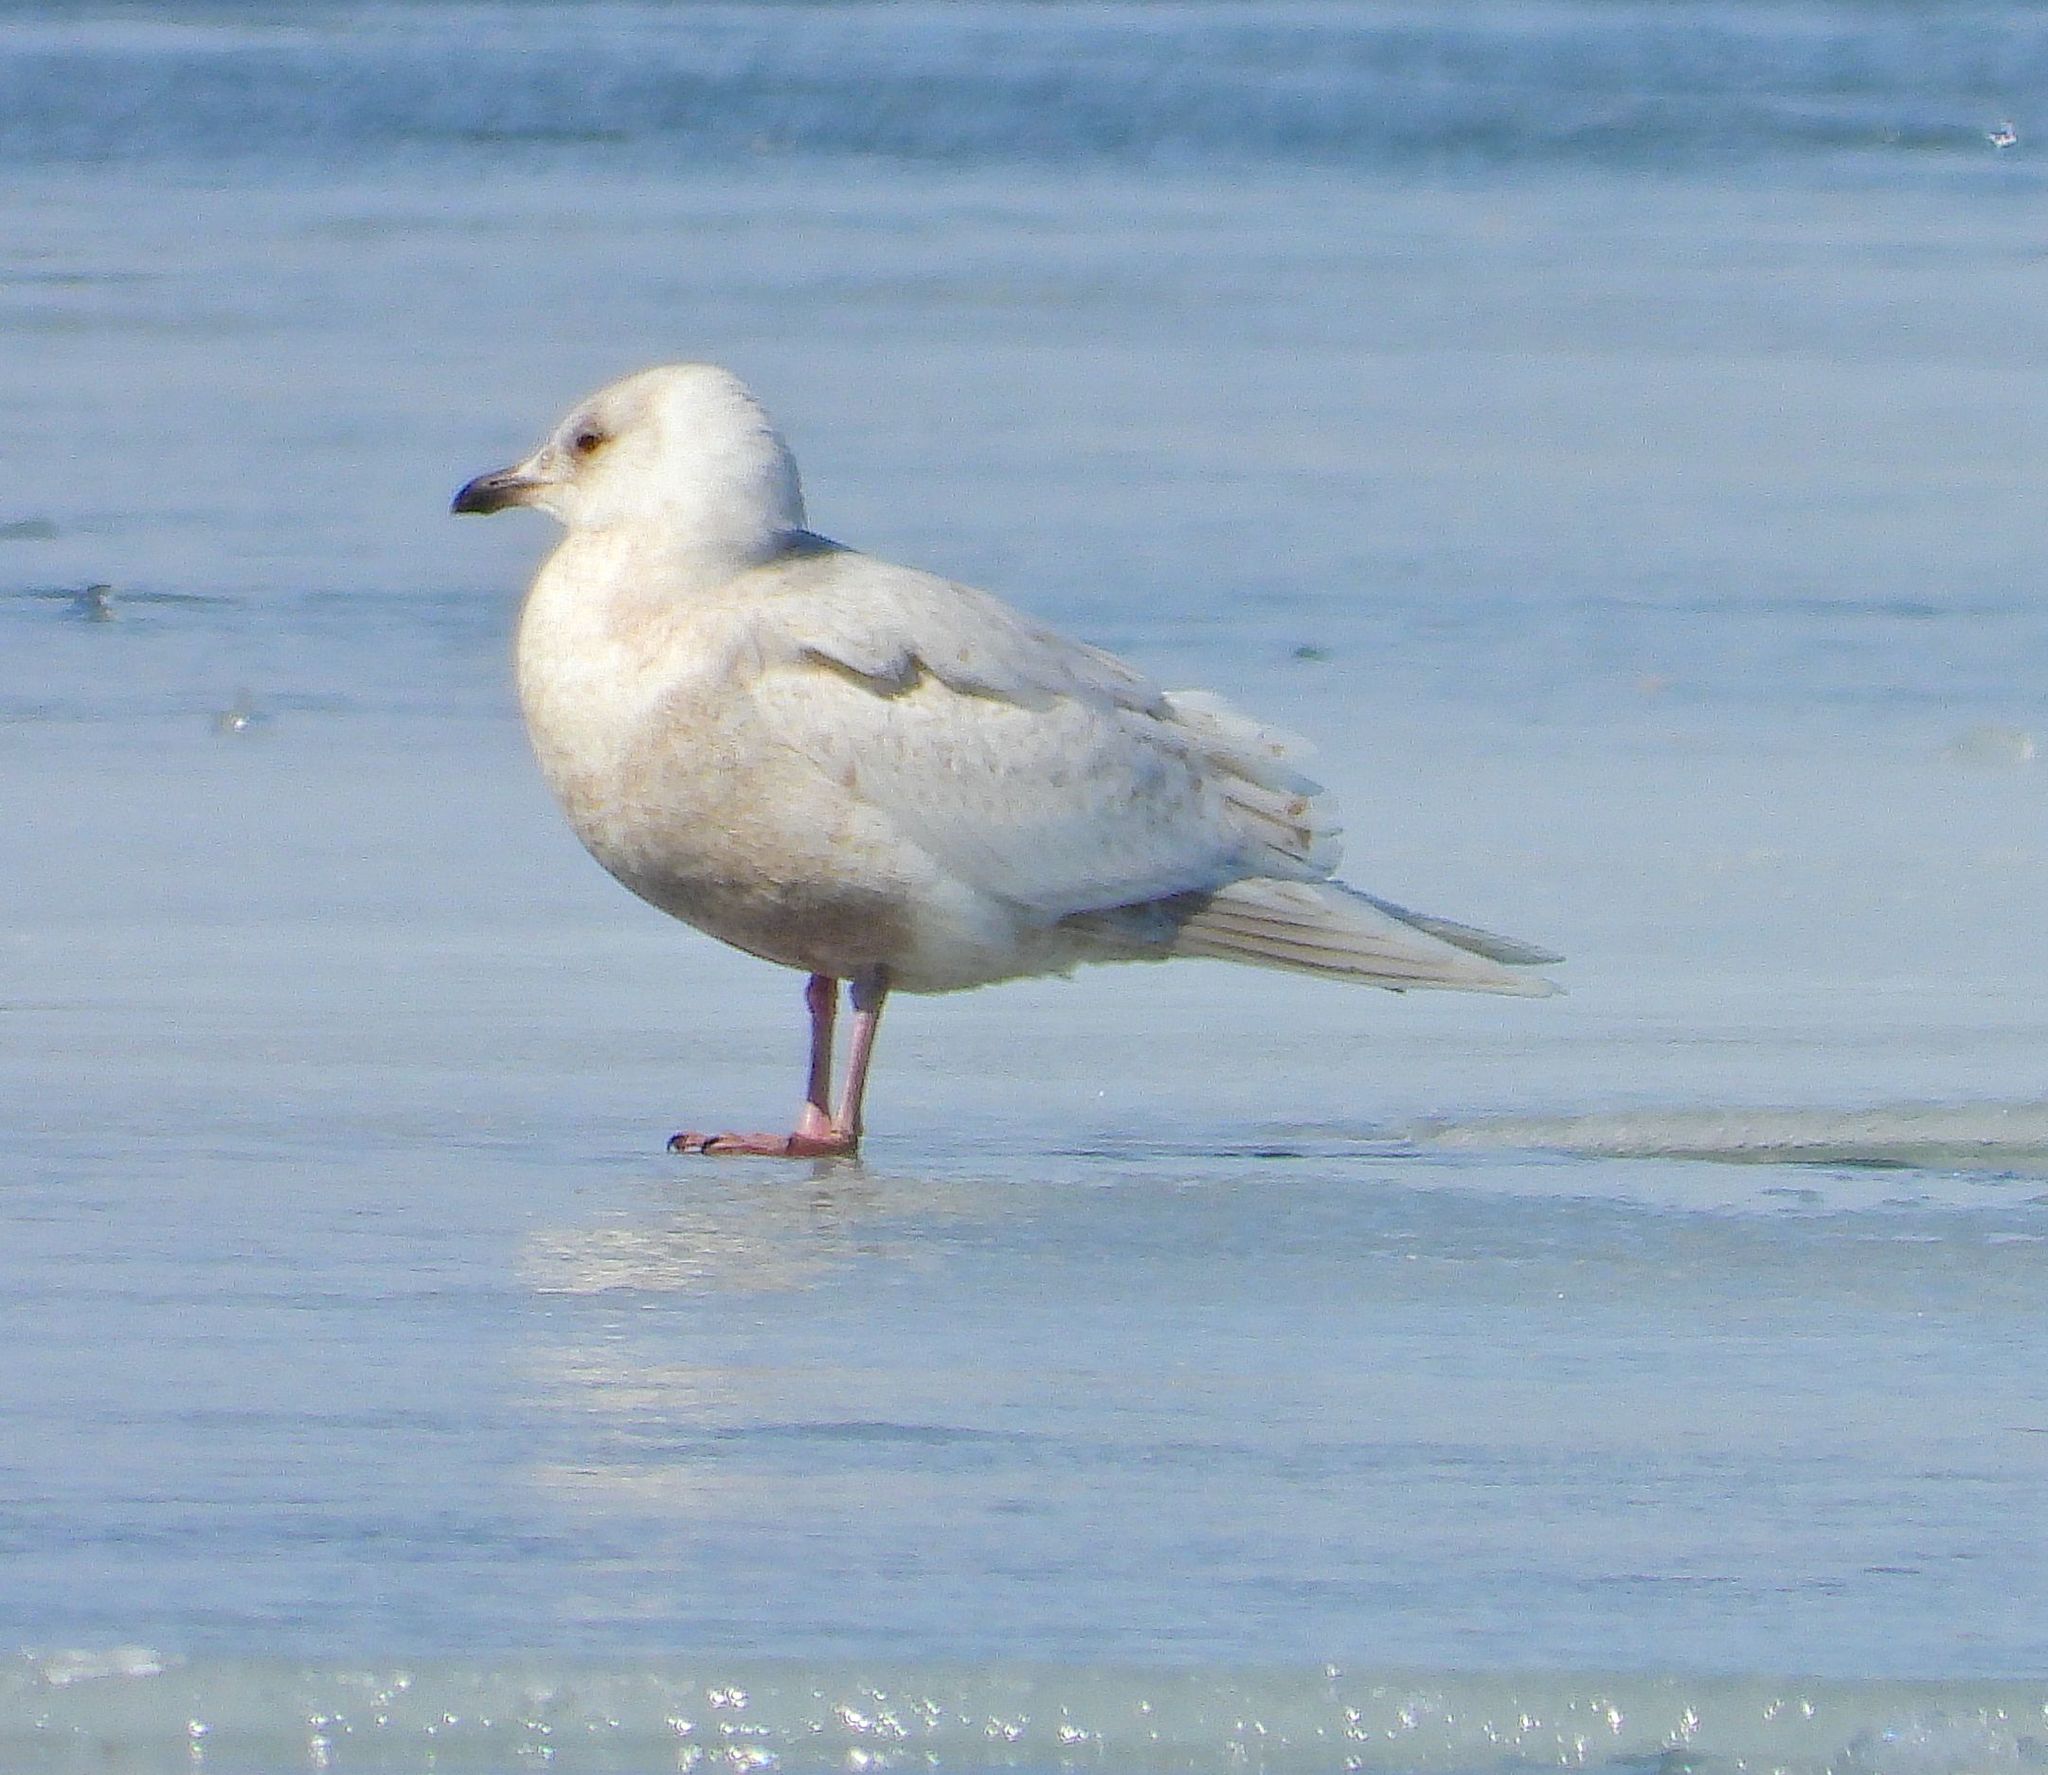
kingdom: Animalia
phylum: Chordata
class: Aves
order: Charadriiformes
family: Laridae
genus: Larus
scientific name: Larus glaucoides
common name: Iceland gull
